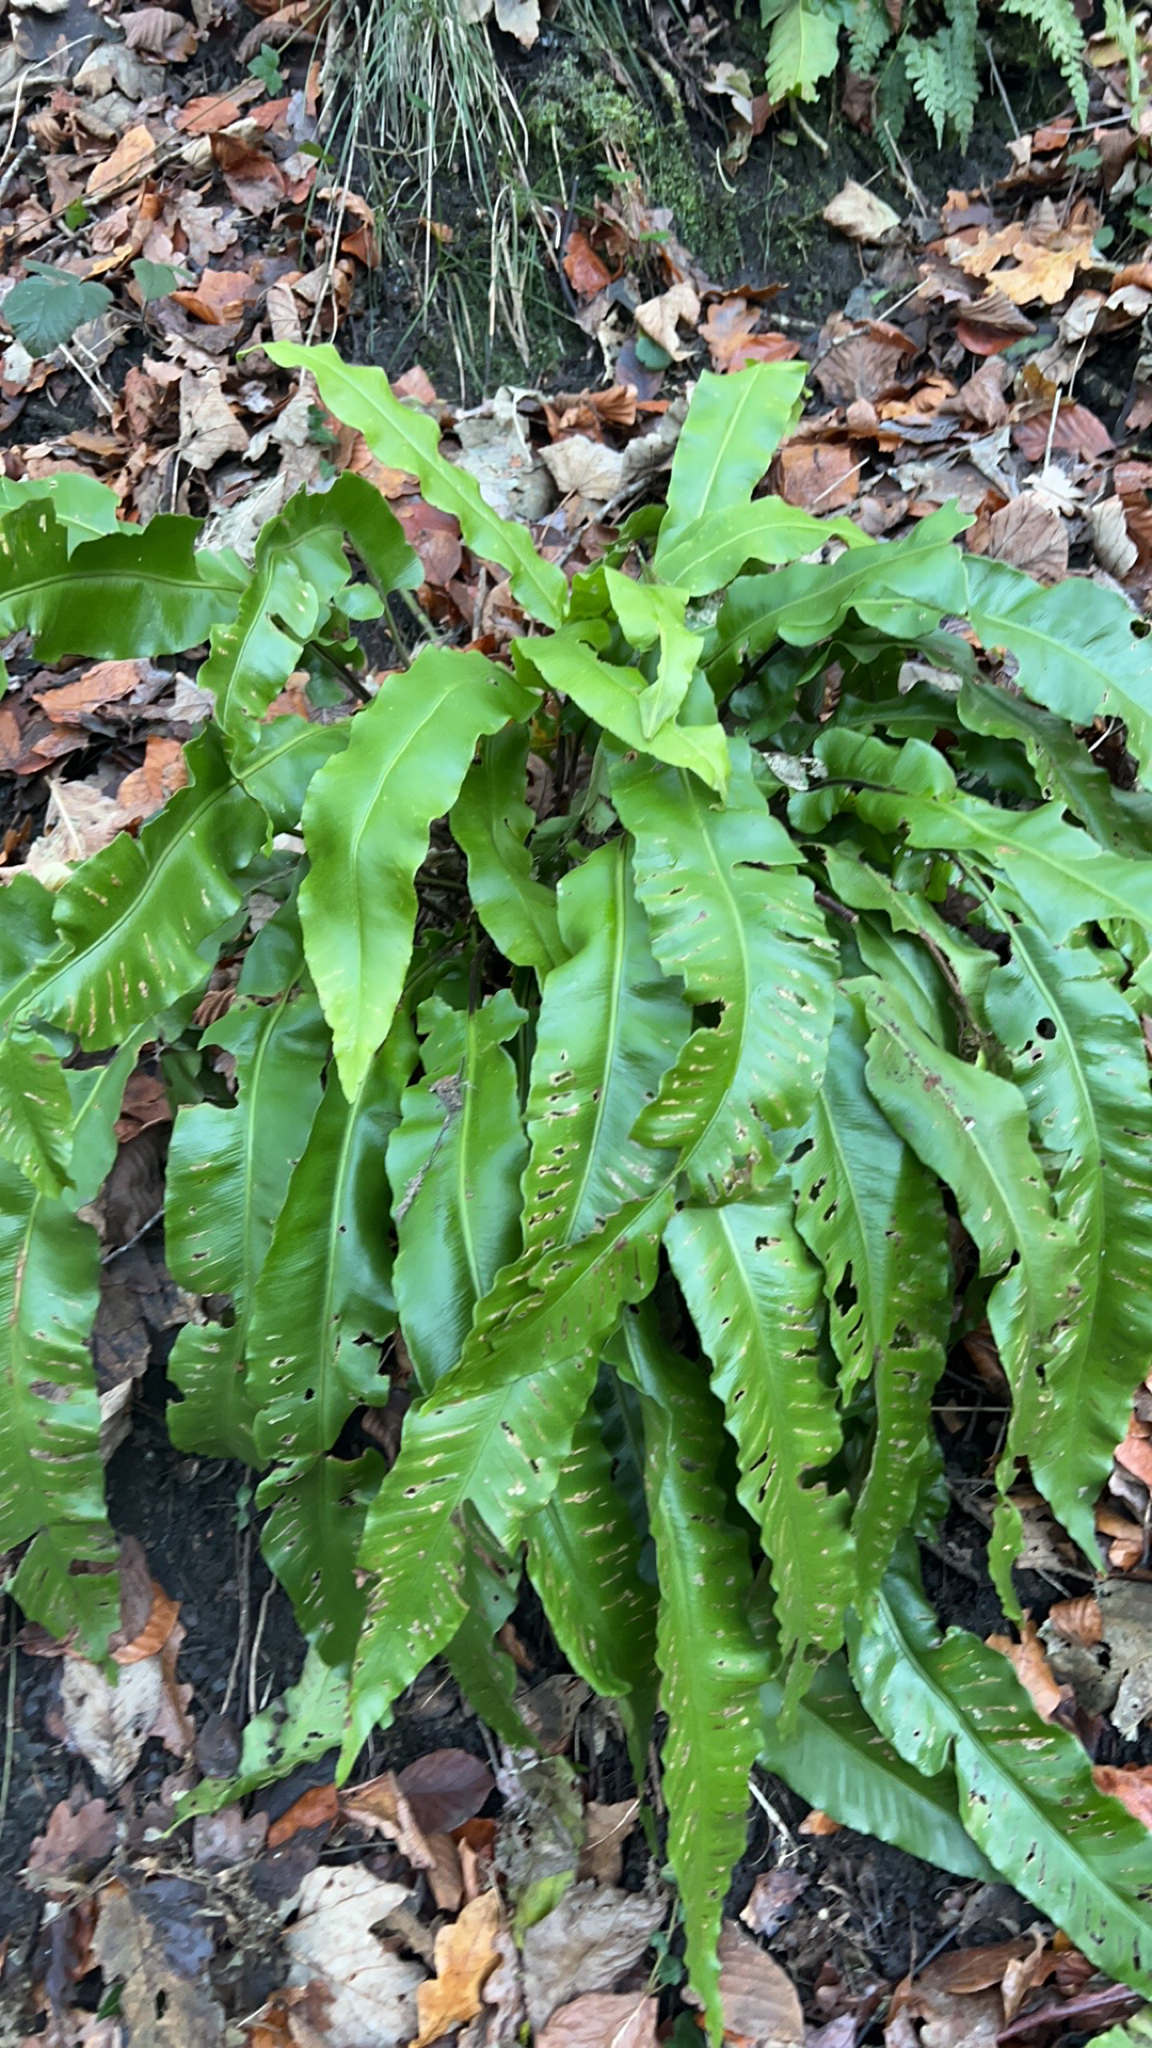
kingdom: Plantae
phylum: Tracheophyta
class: Polypodiopsida
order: Polypodiales
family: Aspleniaceae
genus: Asplenium
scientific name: Asplenium scolopendrium
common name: Hart's-tongue fern
